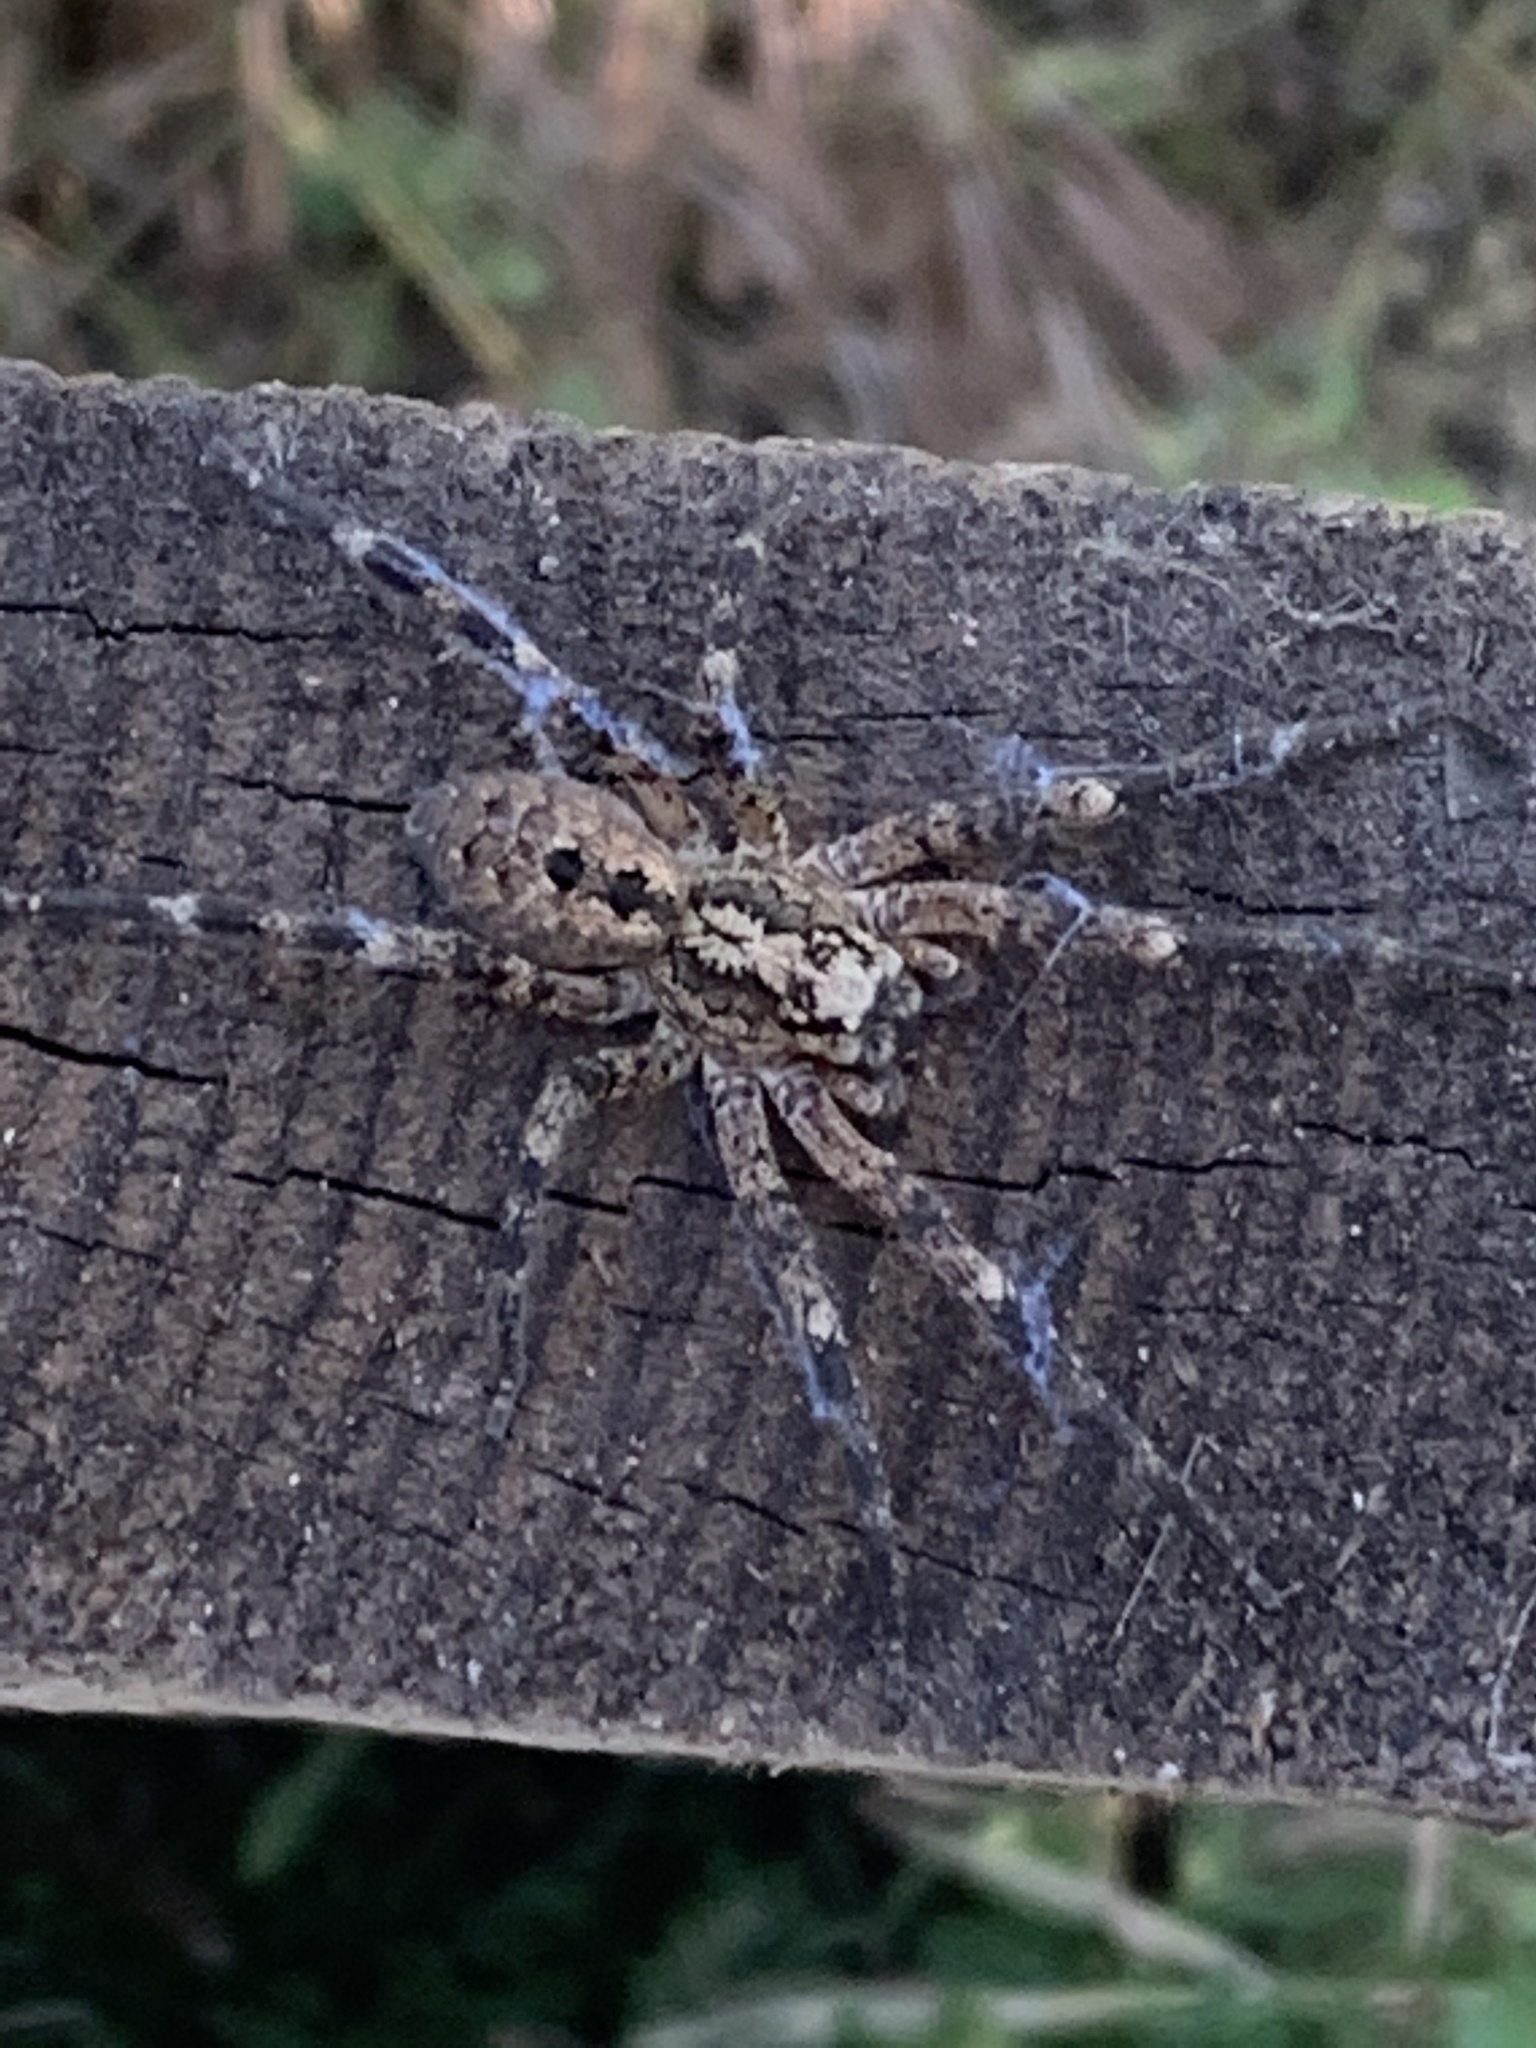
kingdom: Animalia
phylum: Arthropoda
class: Arachnida
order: Araneae
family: Zoropsidae
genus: Zoropsis
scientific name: Zoropsis spinimana
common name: Zoropsid spider
